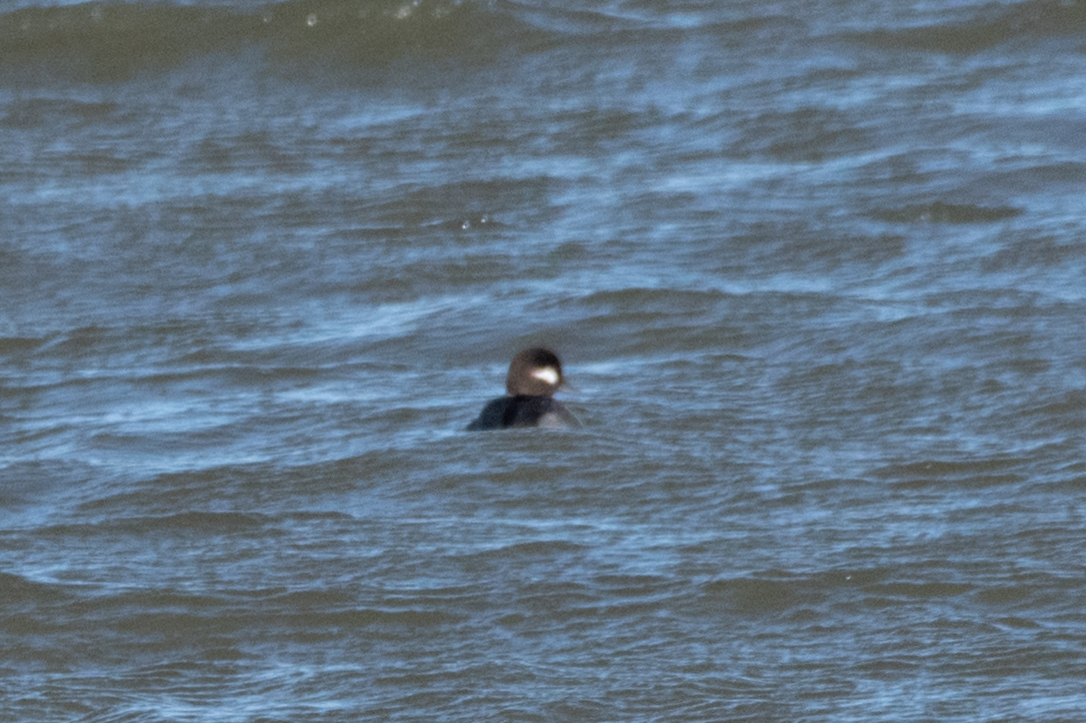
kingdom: Animalia
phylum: Chordata
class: Aves
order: Anseriformes
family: Anatidae
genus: Bucephala
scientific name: Bucephala albeola
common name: Bufflehead
